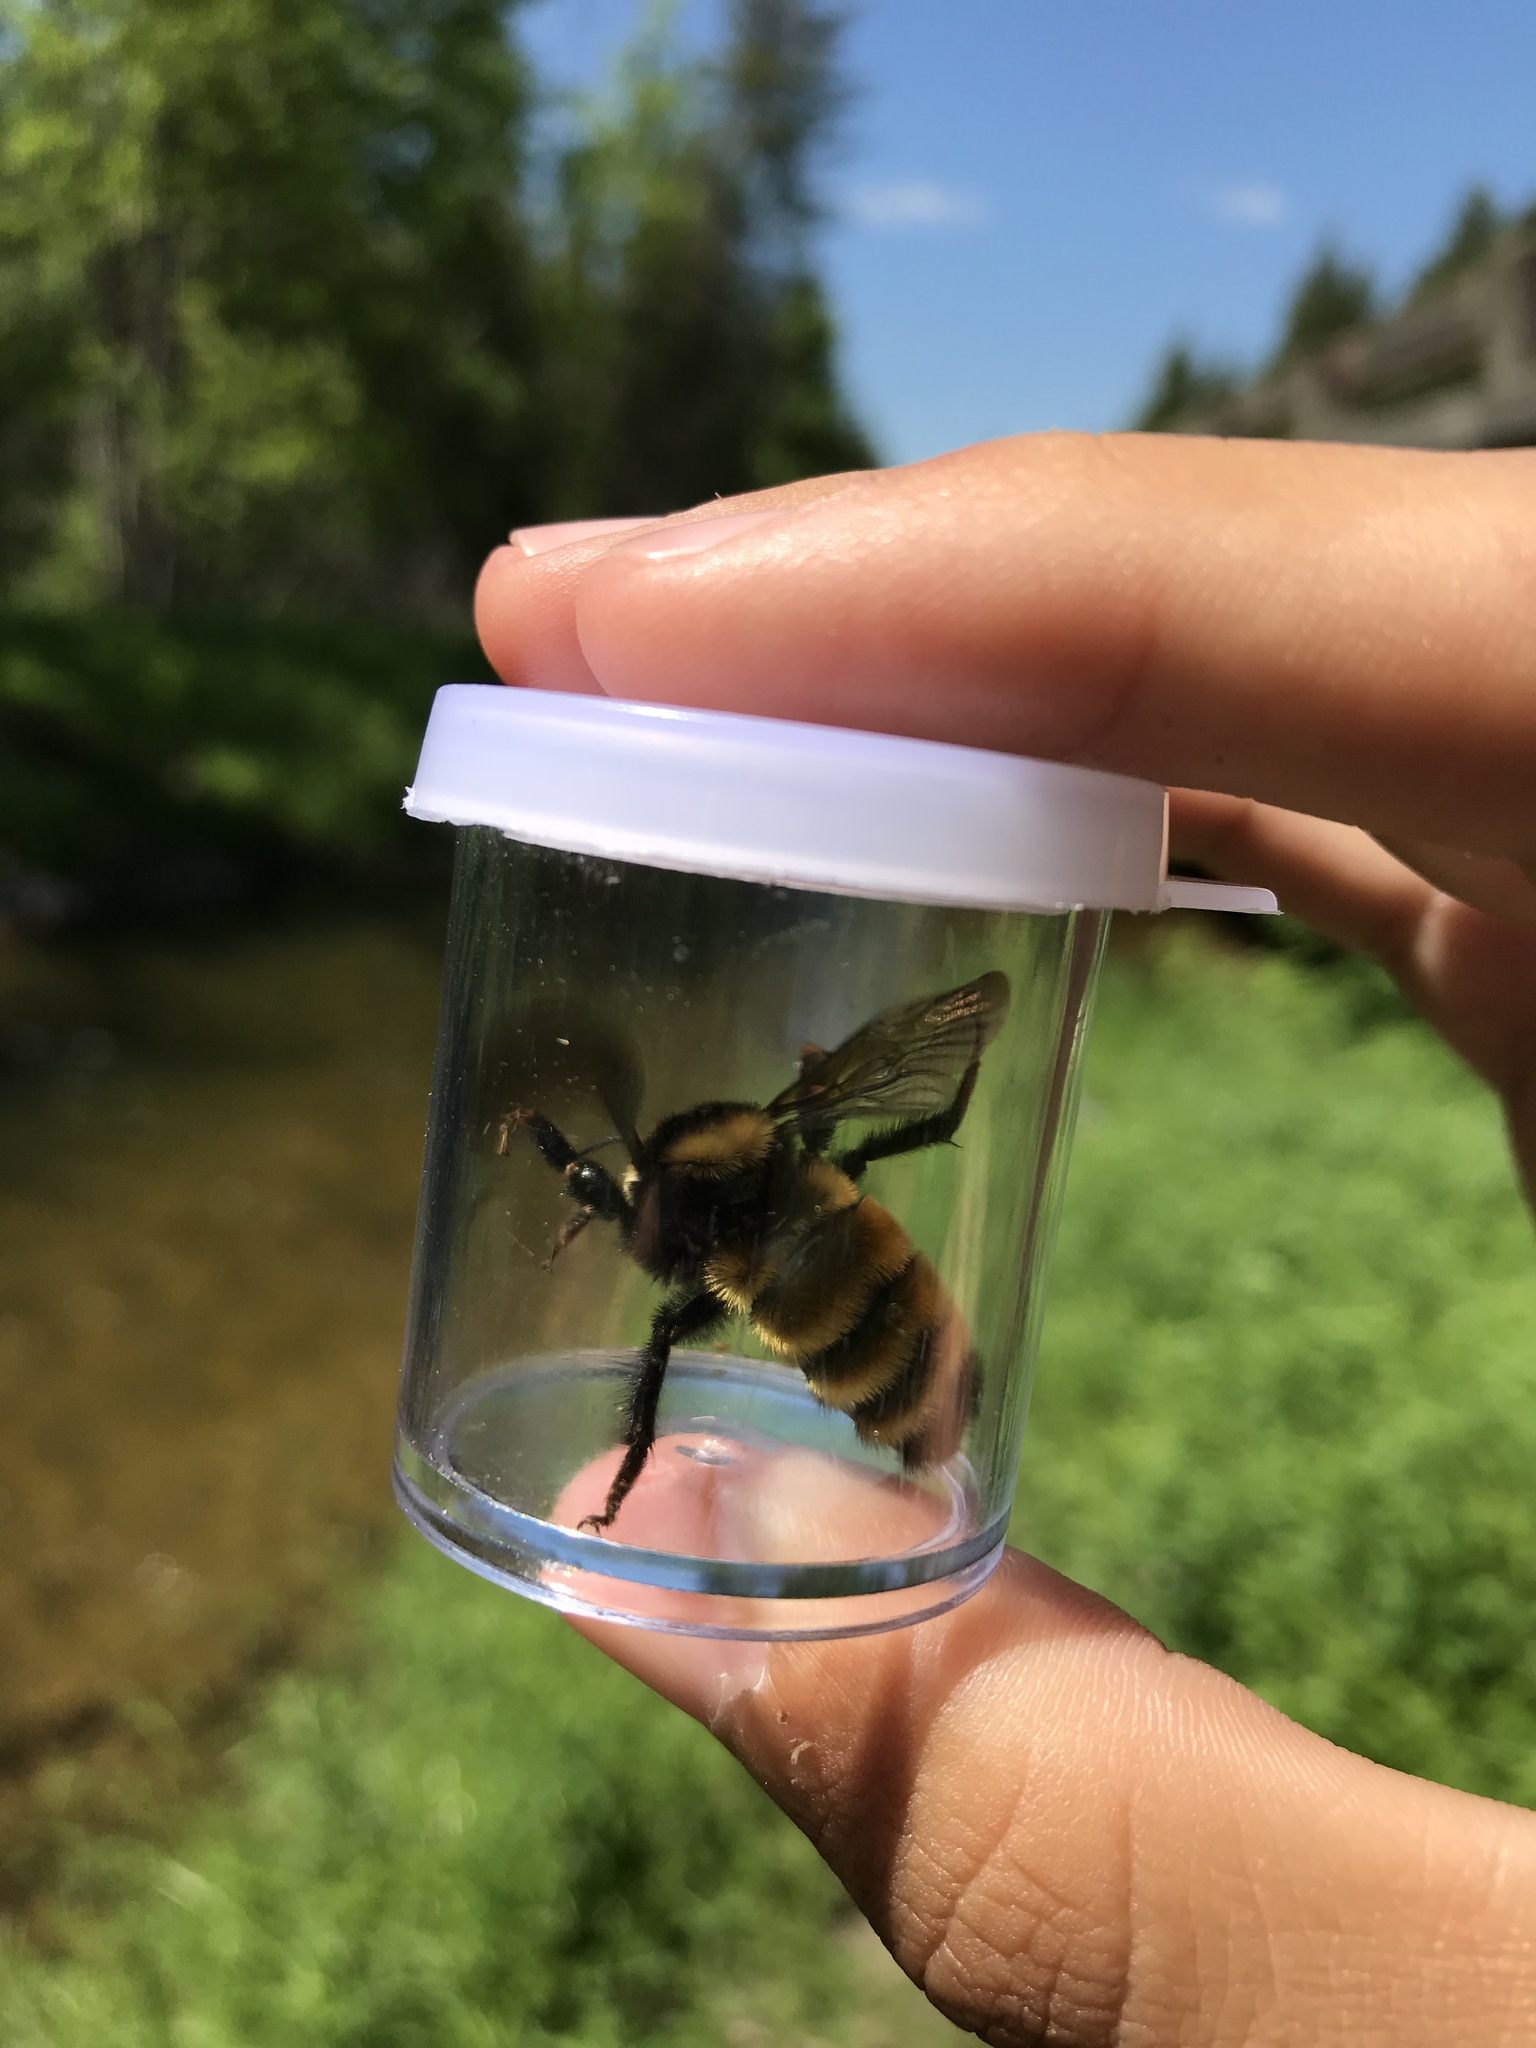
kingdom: Animalia
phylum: Arthropoda
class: Insecta
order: Hymenoptera
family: Apidae
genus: Bombus
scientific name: Bombus borealis
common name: Northern amber bumble bee
